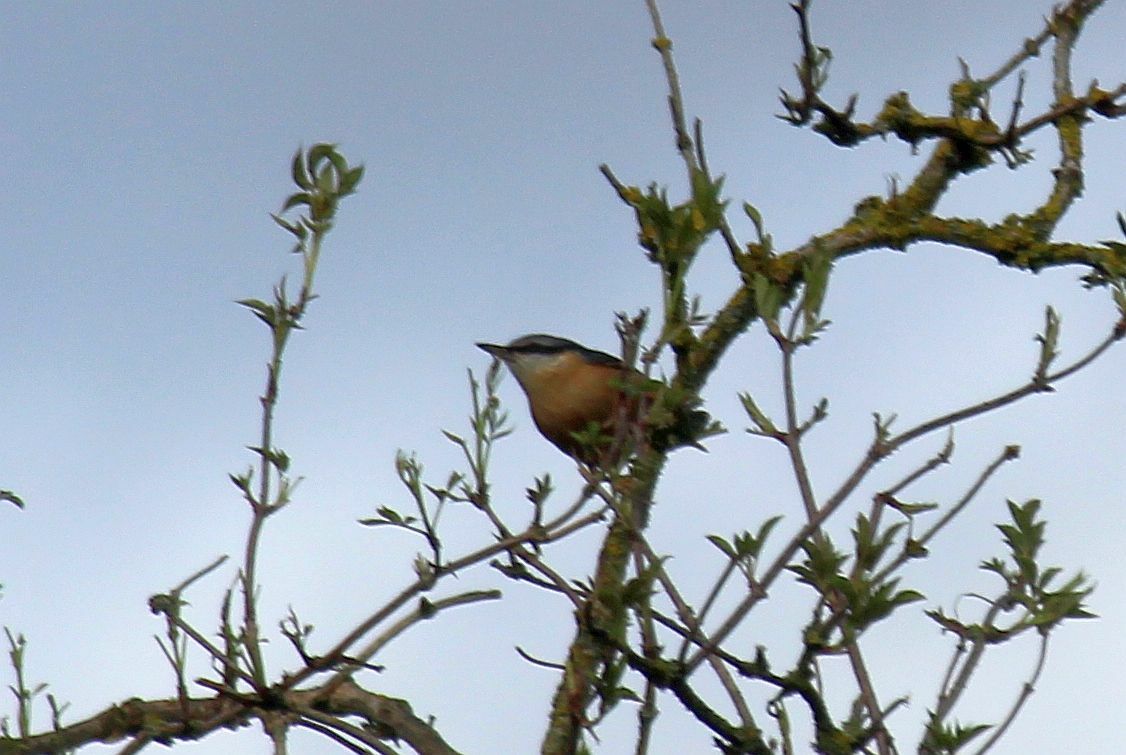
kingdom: Animalia
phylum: Chordata
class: Aves
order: Passeriformes
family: Sittidae
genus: Sitta
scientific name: Sitta europaea
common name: Eurasian nuthatch
